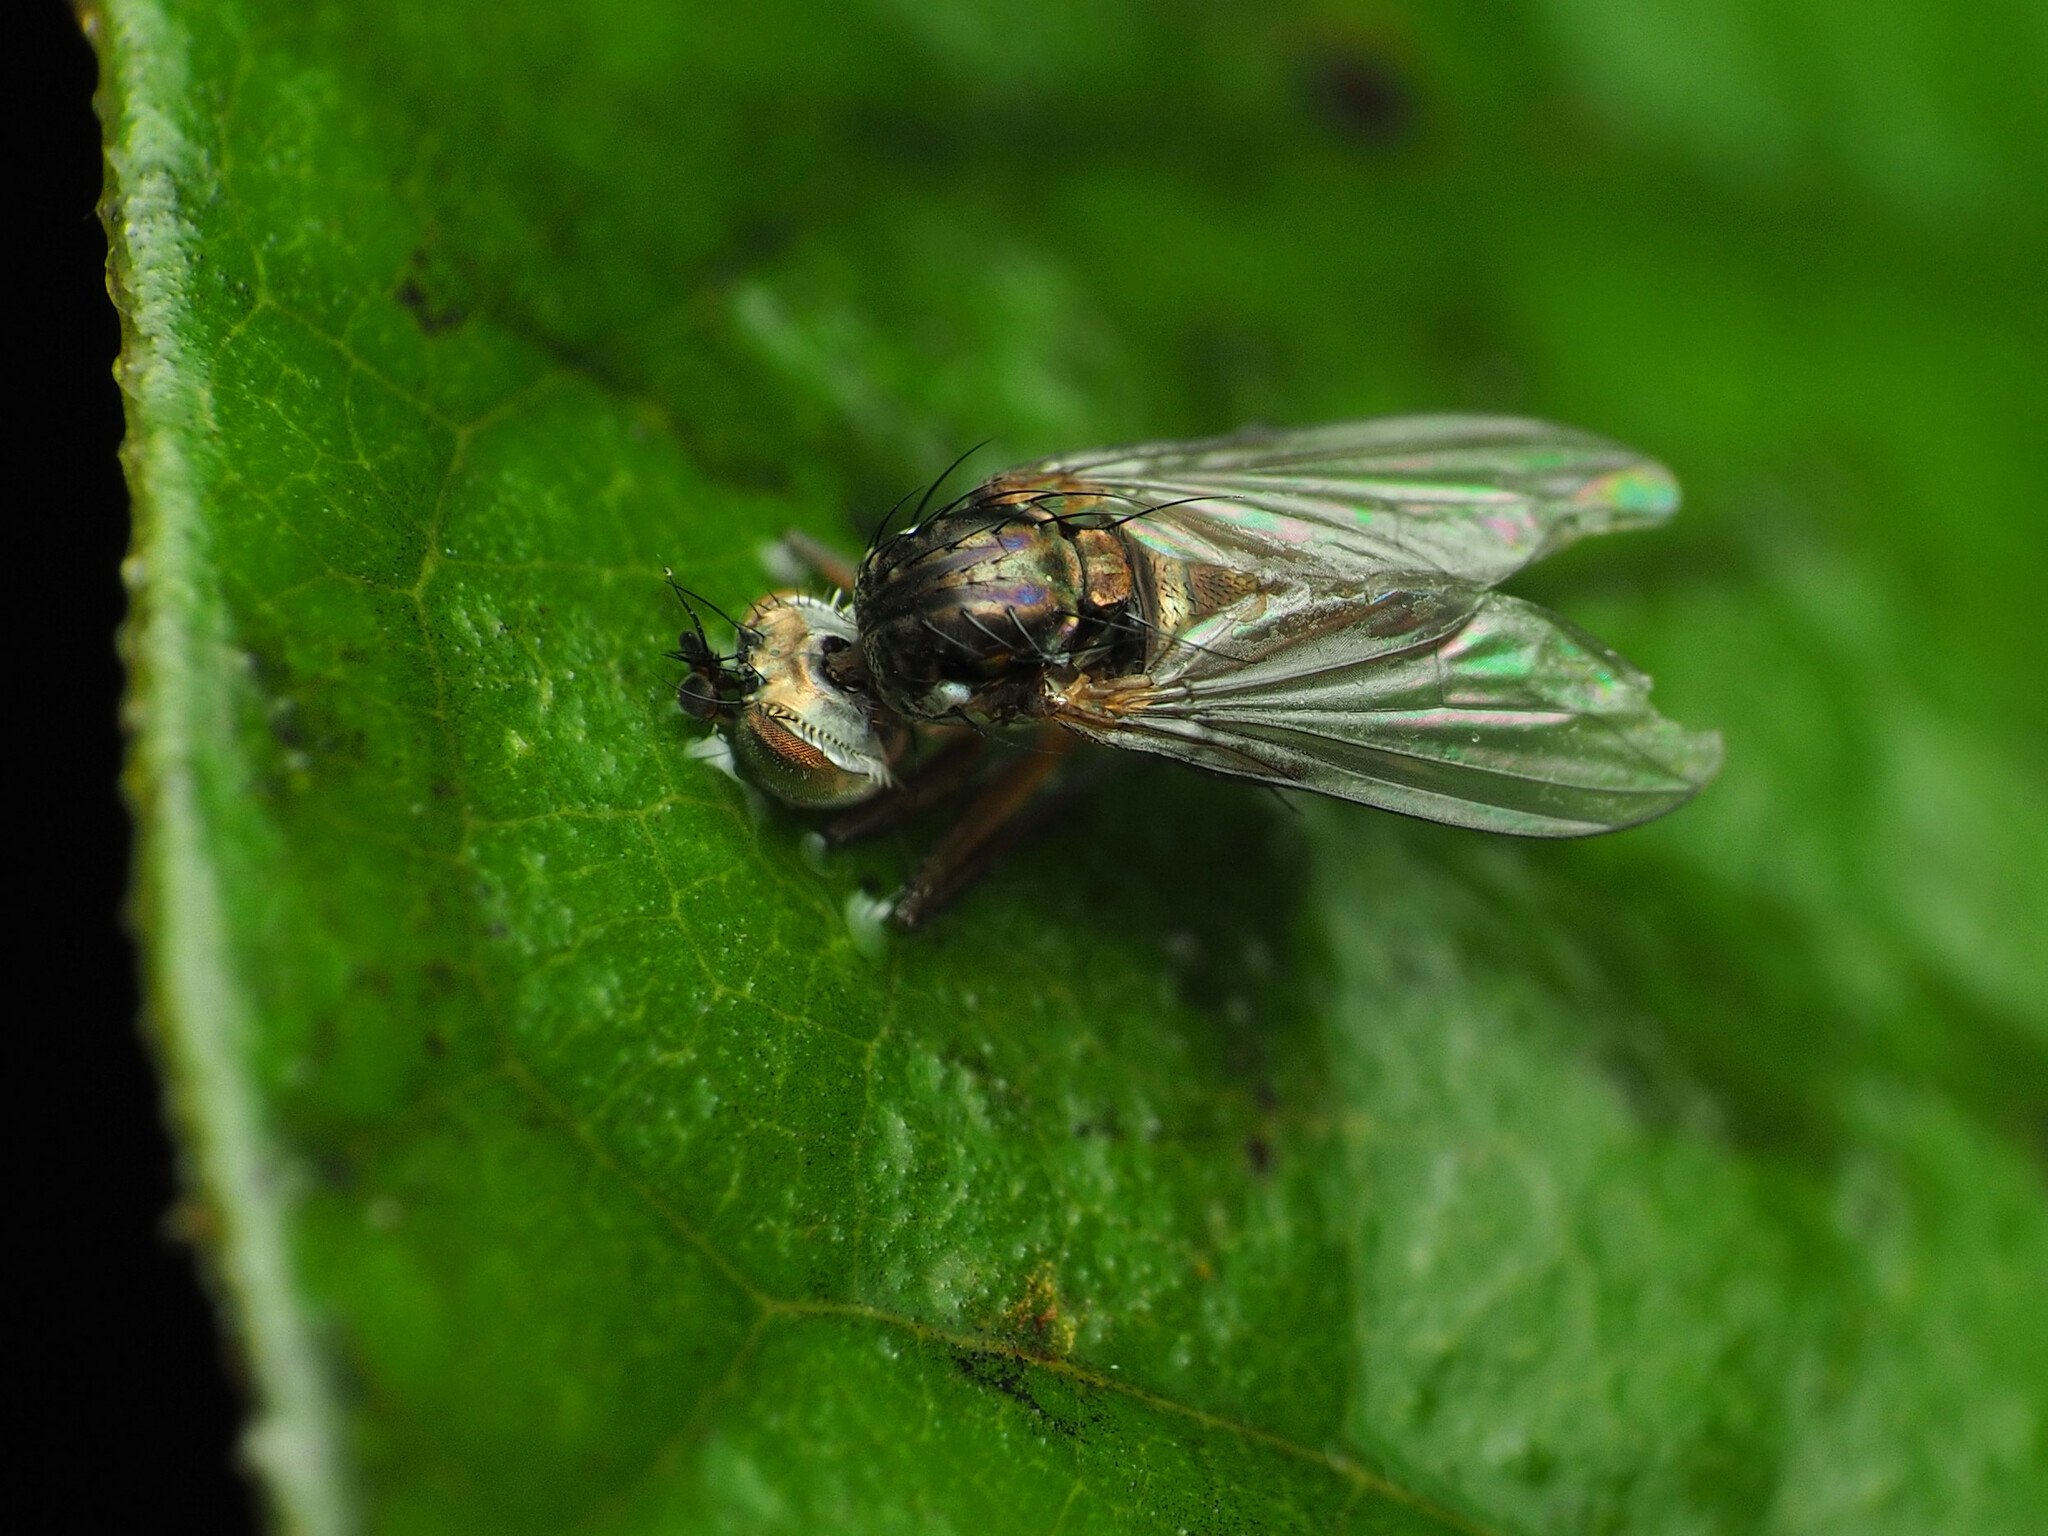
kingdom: Animalia
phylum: Arthropoda
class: Insecta
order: Diptera
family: Dolichopodidae
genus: Pelastoneurus
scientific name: Pelastoneurus vagans
